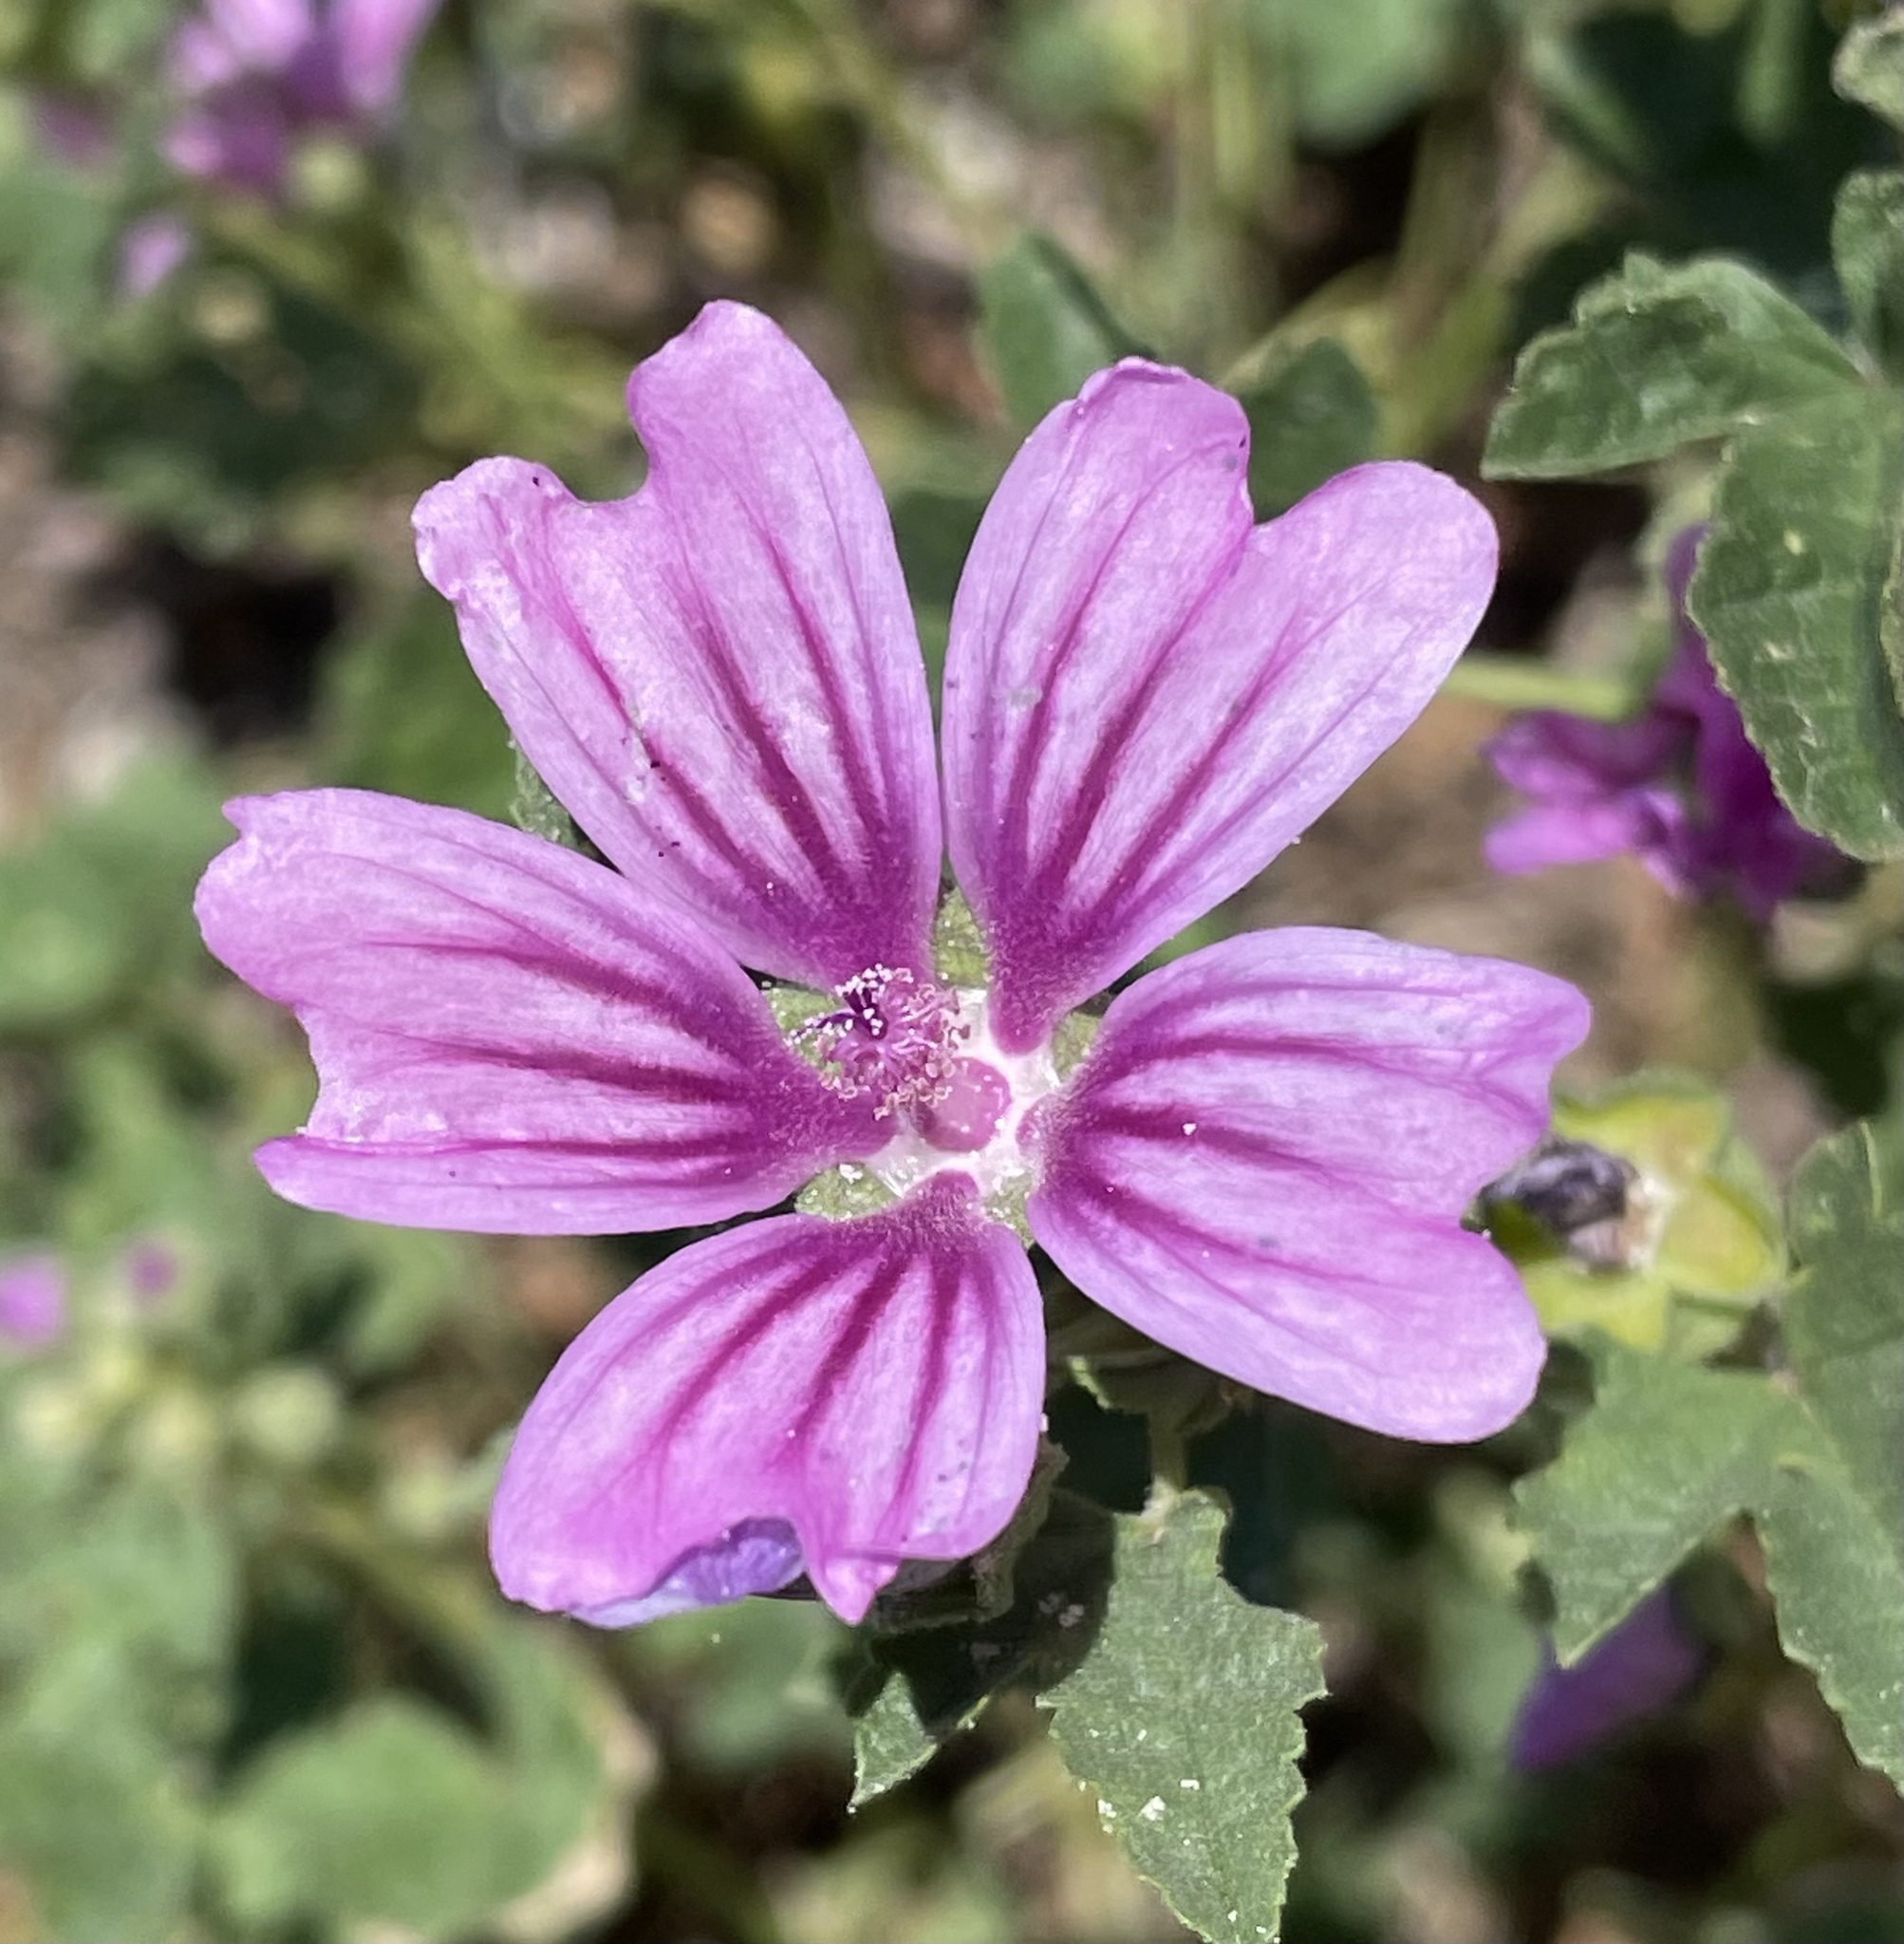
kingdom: Plantae
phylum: Tracheophyta
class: Magnoliopsida
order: Malvales
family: Malvaceae
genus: Malva
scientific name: Malva sylvestris
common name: Common mallow
